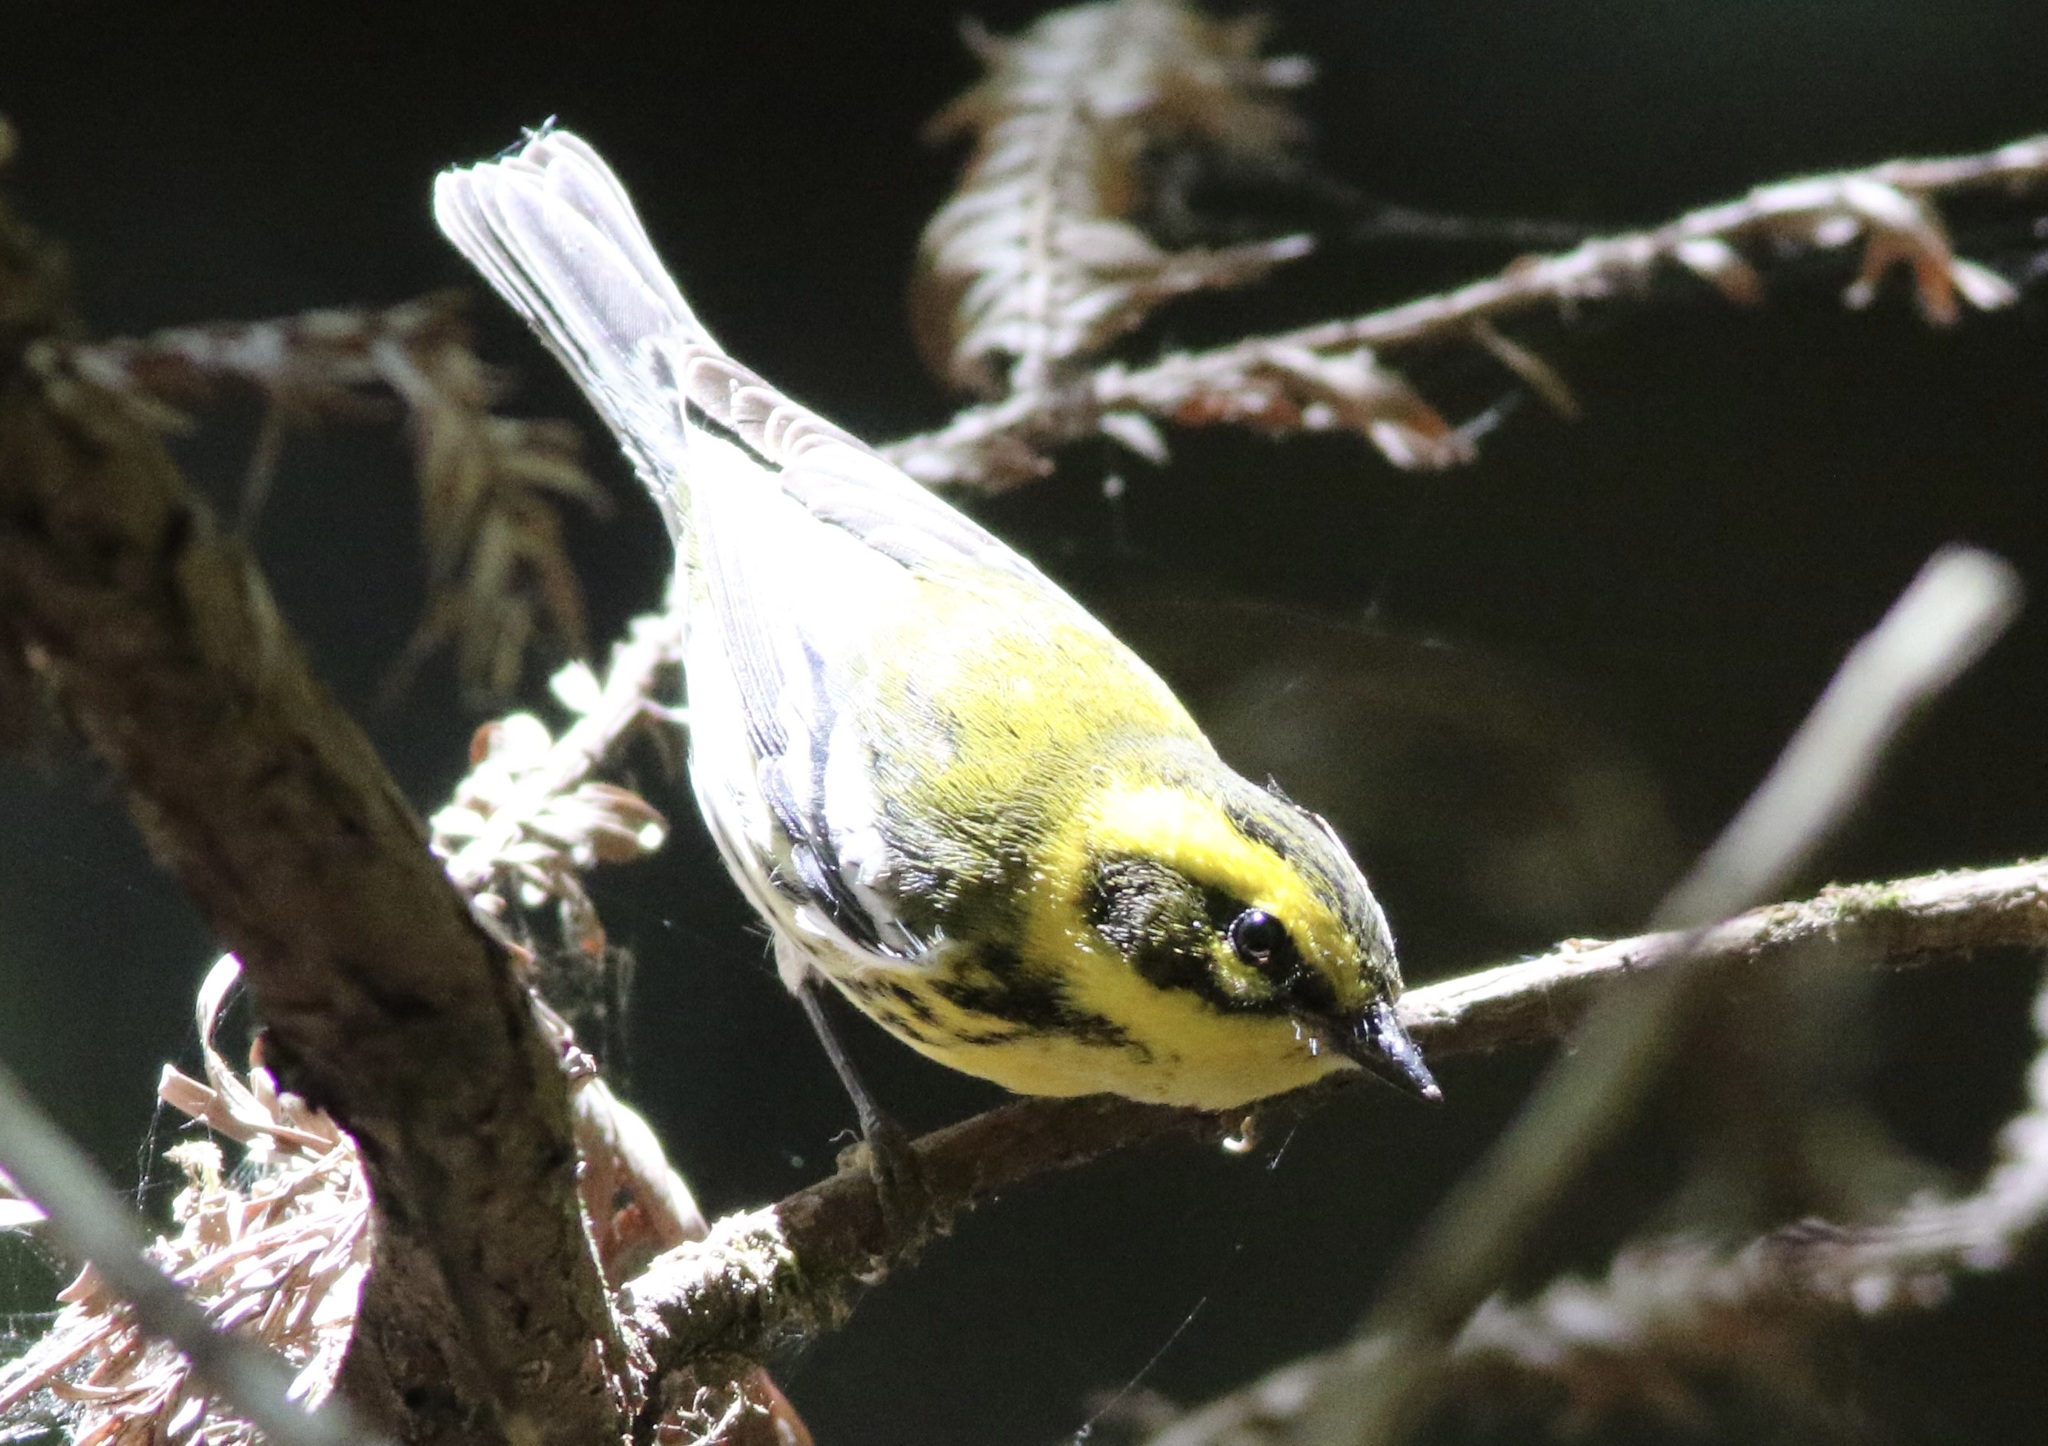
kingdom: Animalia
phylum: Chordata
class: Aves
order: Passeriformes
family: Parulidae
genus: Setophaga
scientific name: Setophaga townsendi
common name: Townsend's warbler
